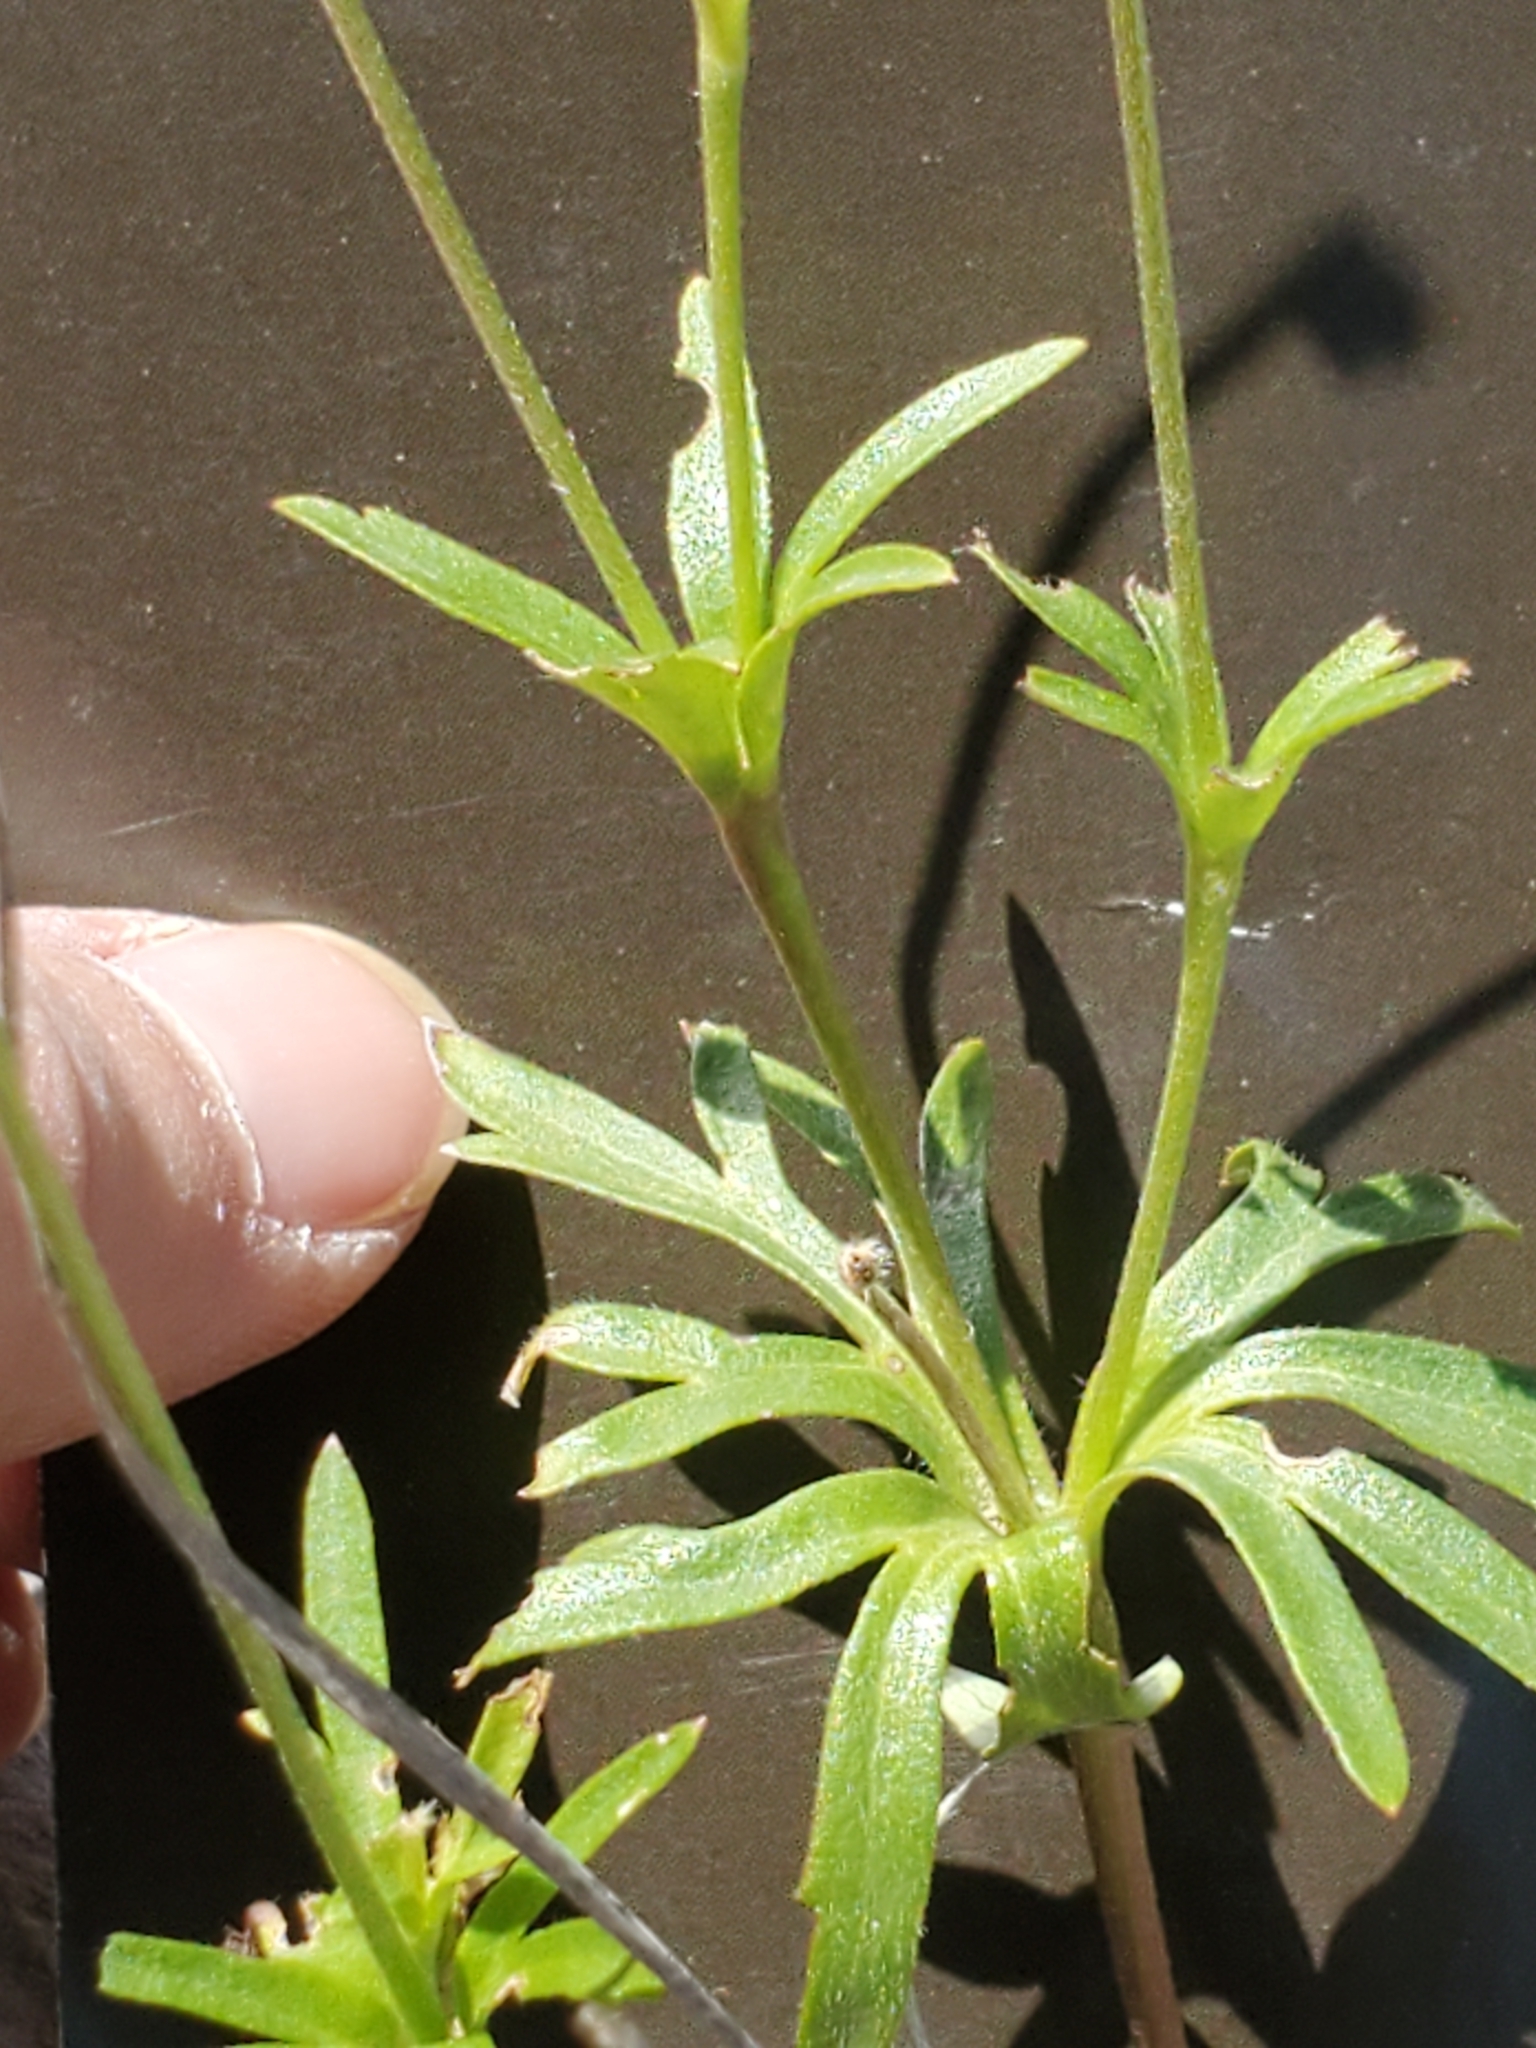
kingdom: Plantae
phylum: Tracheophyta
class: Magnoliopsida
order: Ranunculales
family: Ranunculaceae
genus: Anemone
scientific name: Anemone edwardsiana
